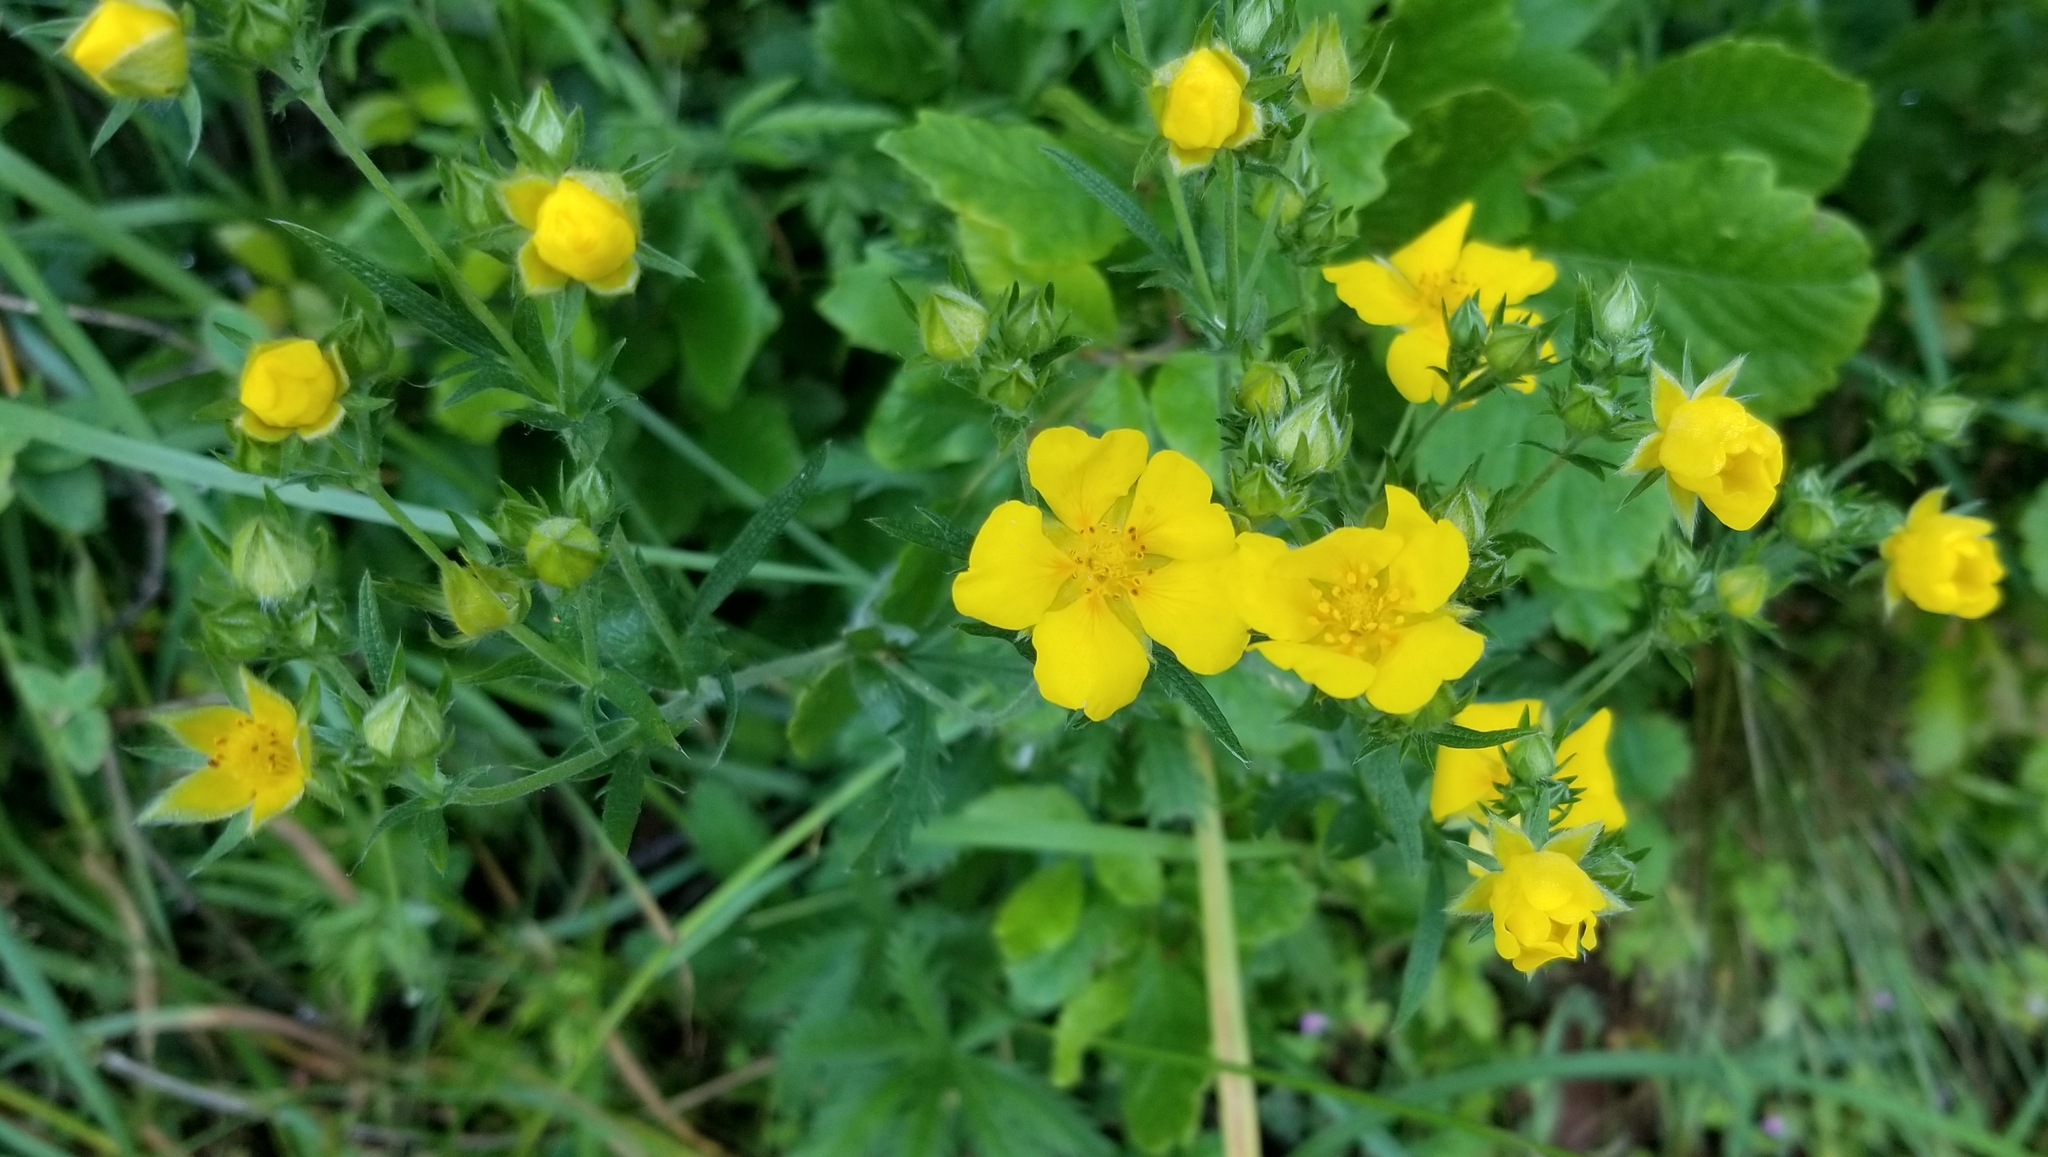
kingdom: Plantae
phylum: Tracheophyta
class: Magnoliopsida
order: Rosales
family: Rosaceae
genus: Potentilla
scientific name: Potentilla gracilis
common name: Graceful cinquefoil
